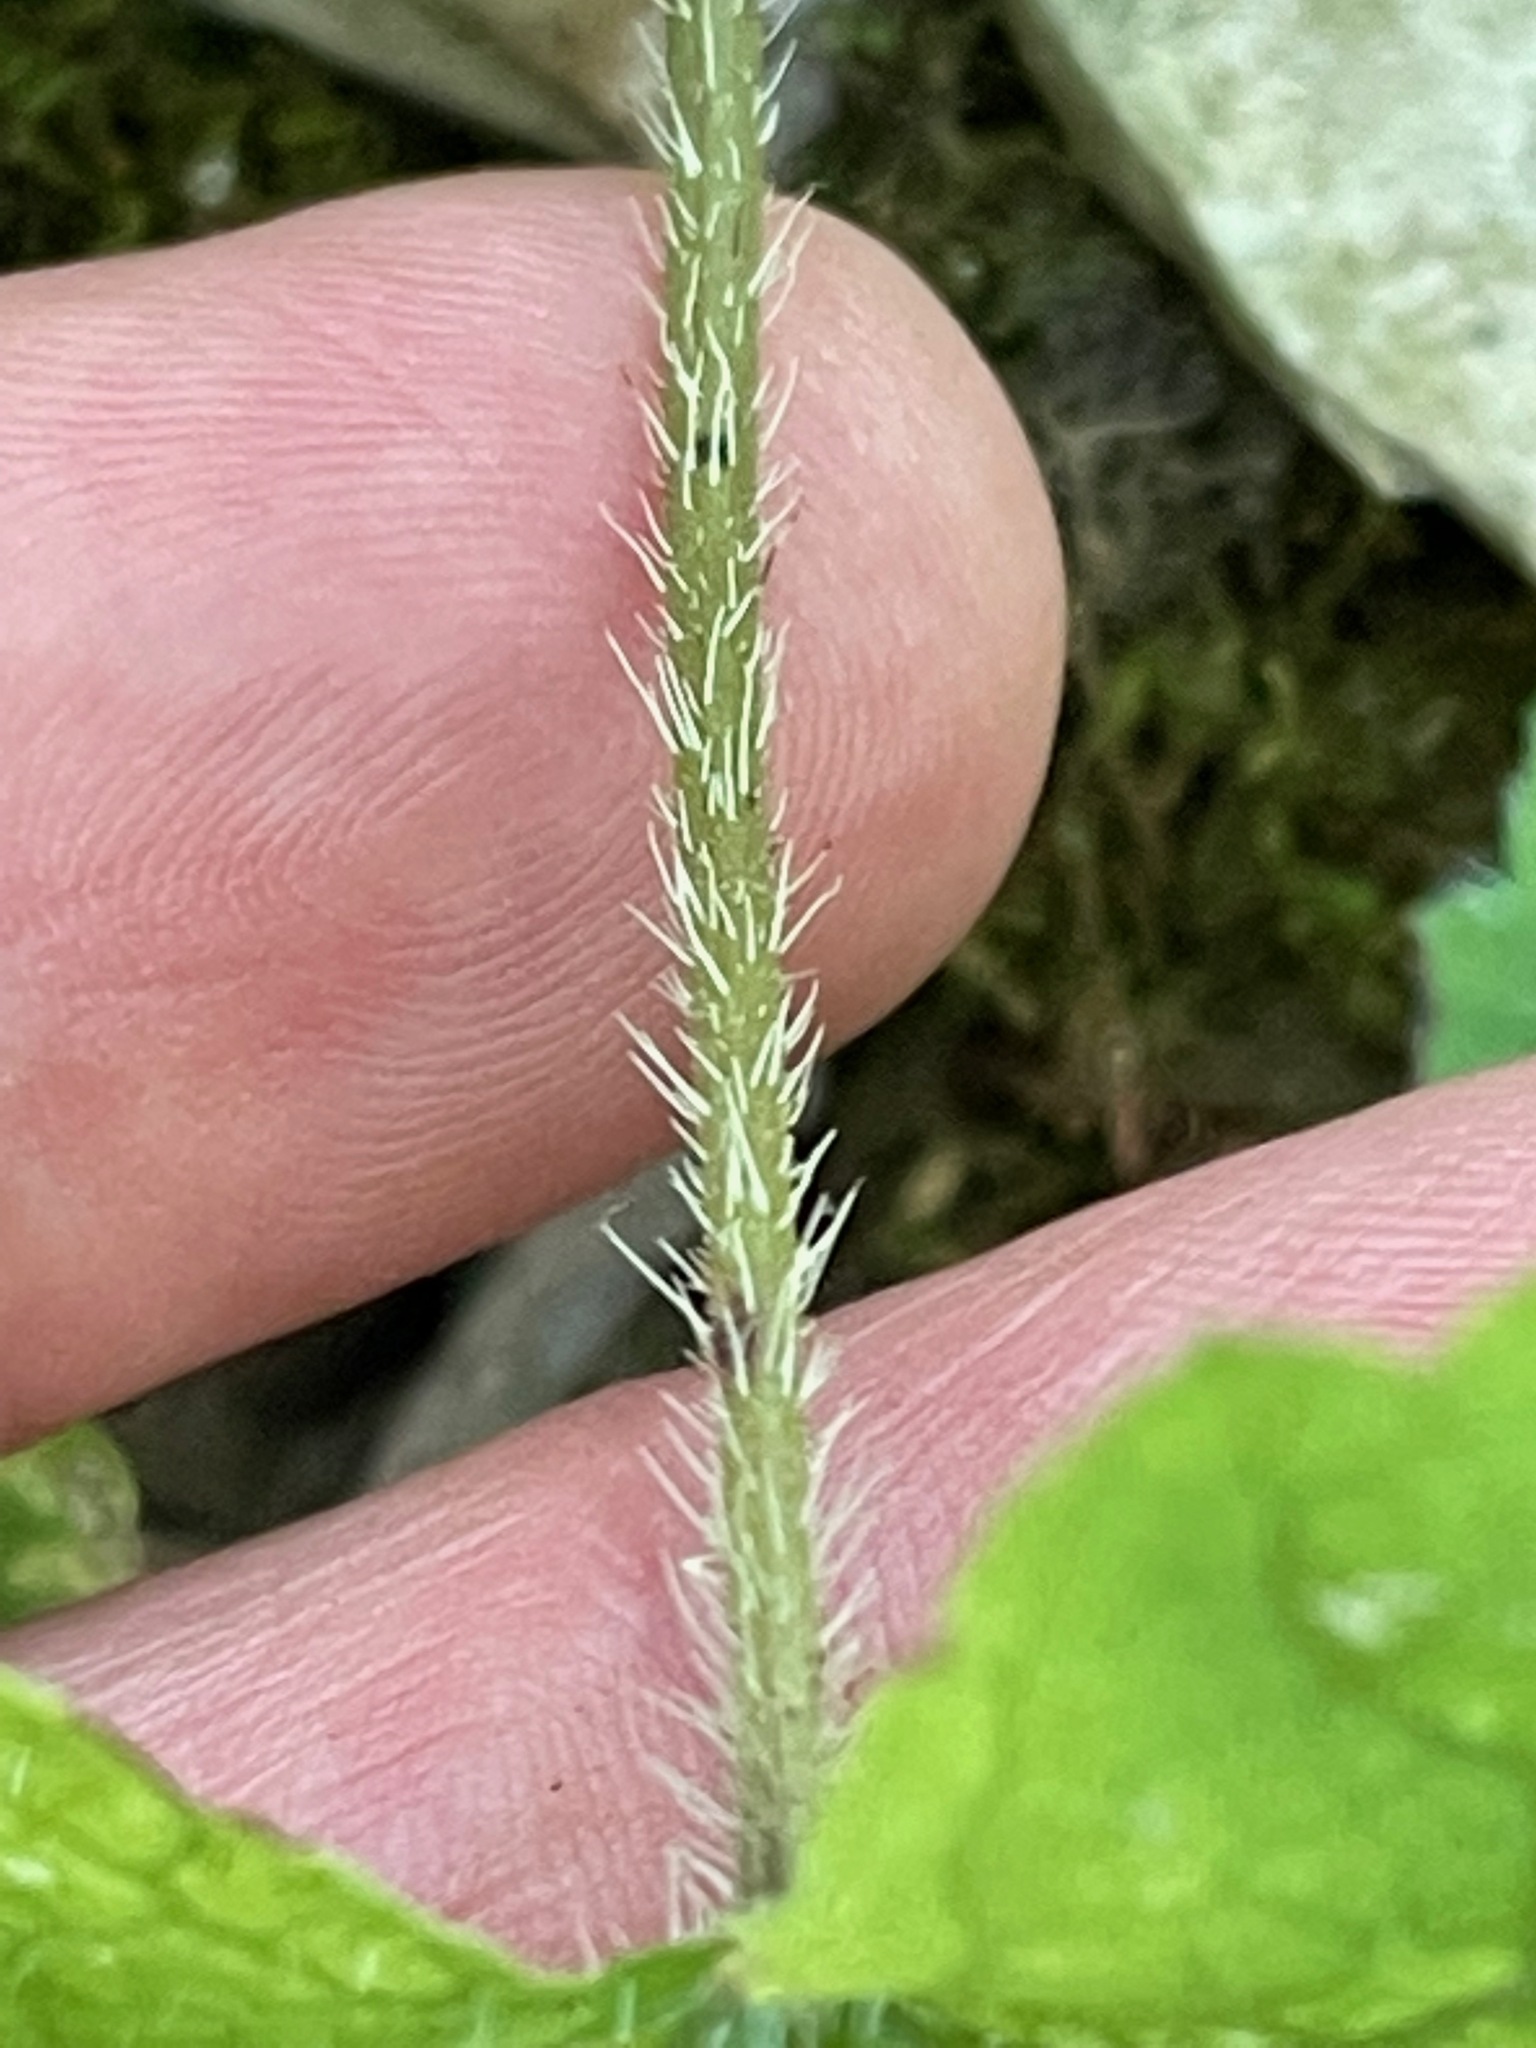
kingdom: Plantae
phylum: Tracheophyta
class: Magnoliopsida
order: Saxifragales
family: Saxifragaceae
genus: Mitella
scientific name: Mitella diphylla
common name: Coolwort
